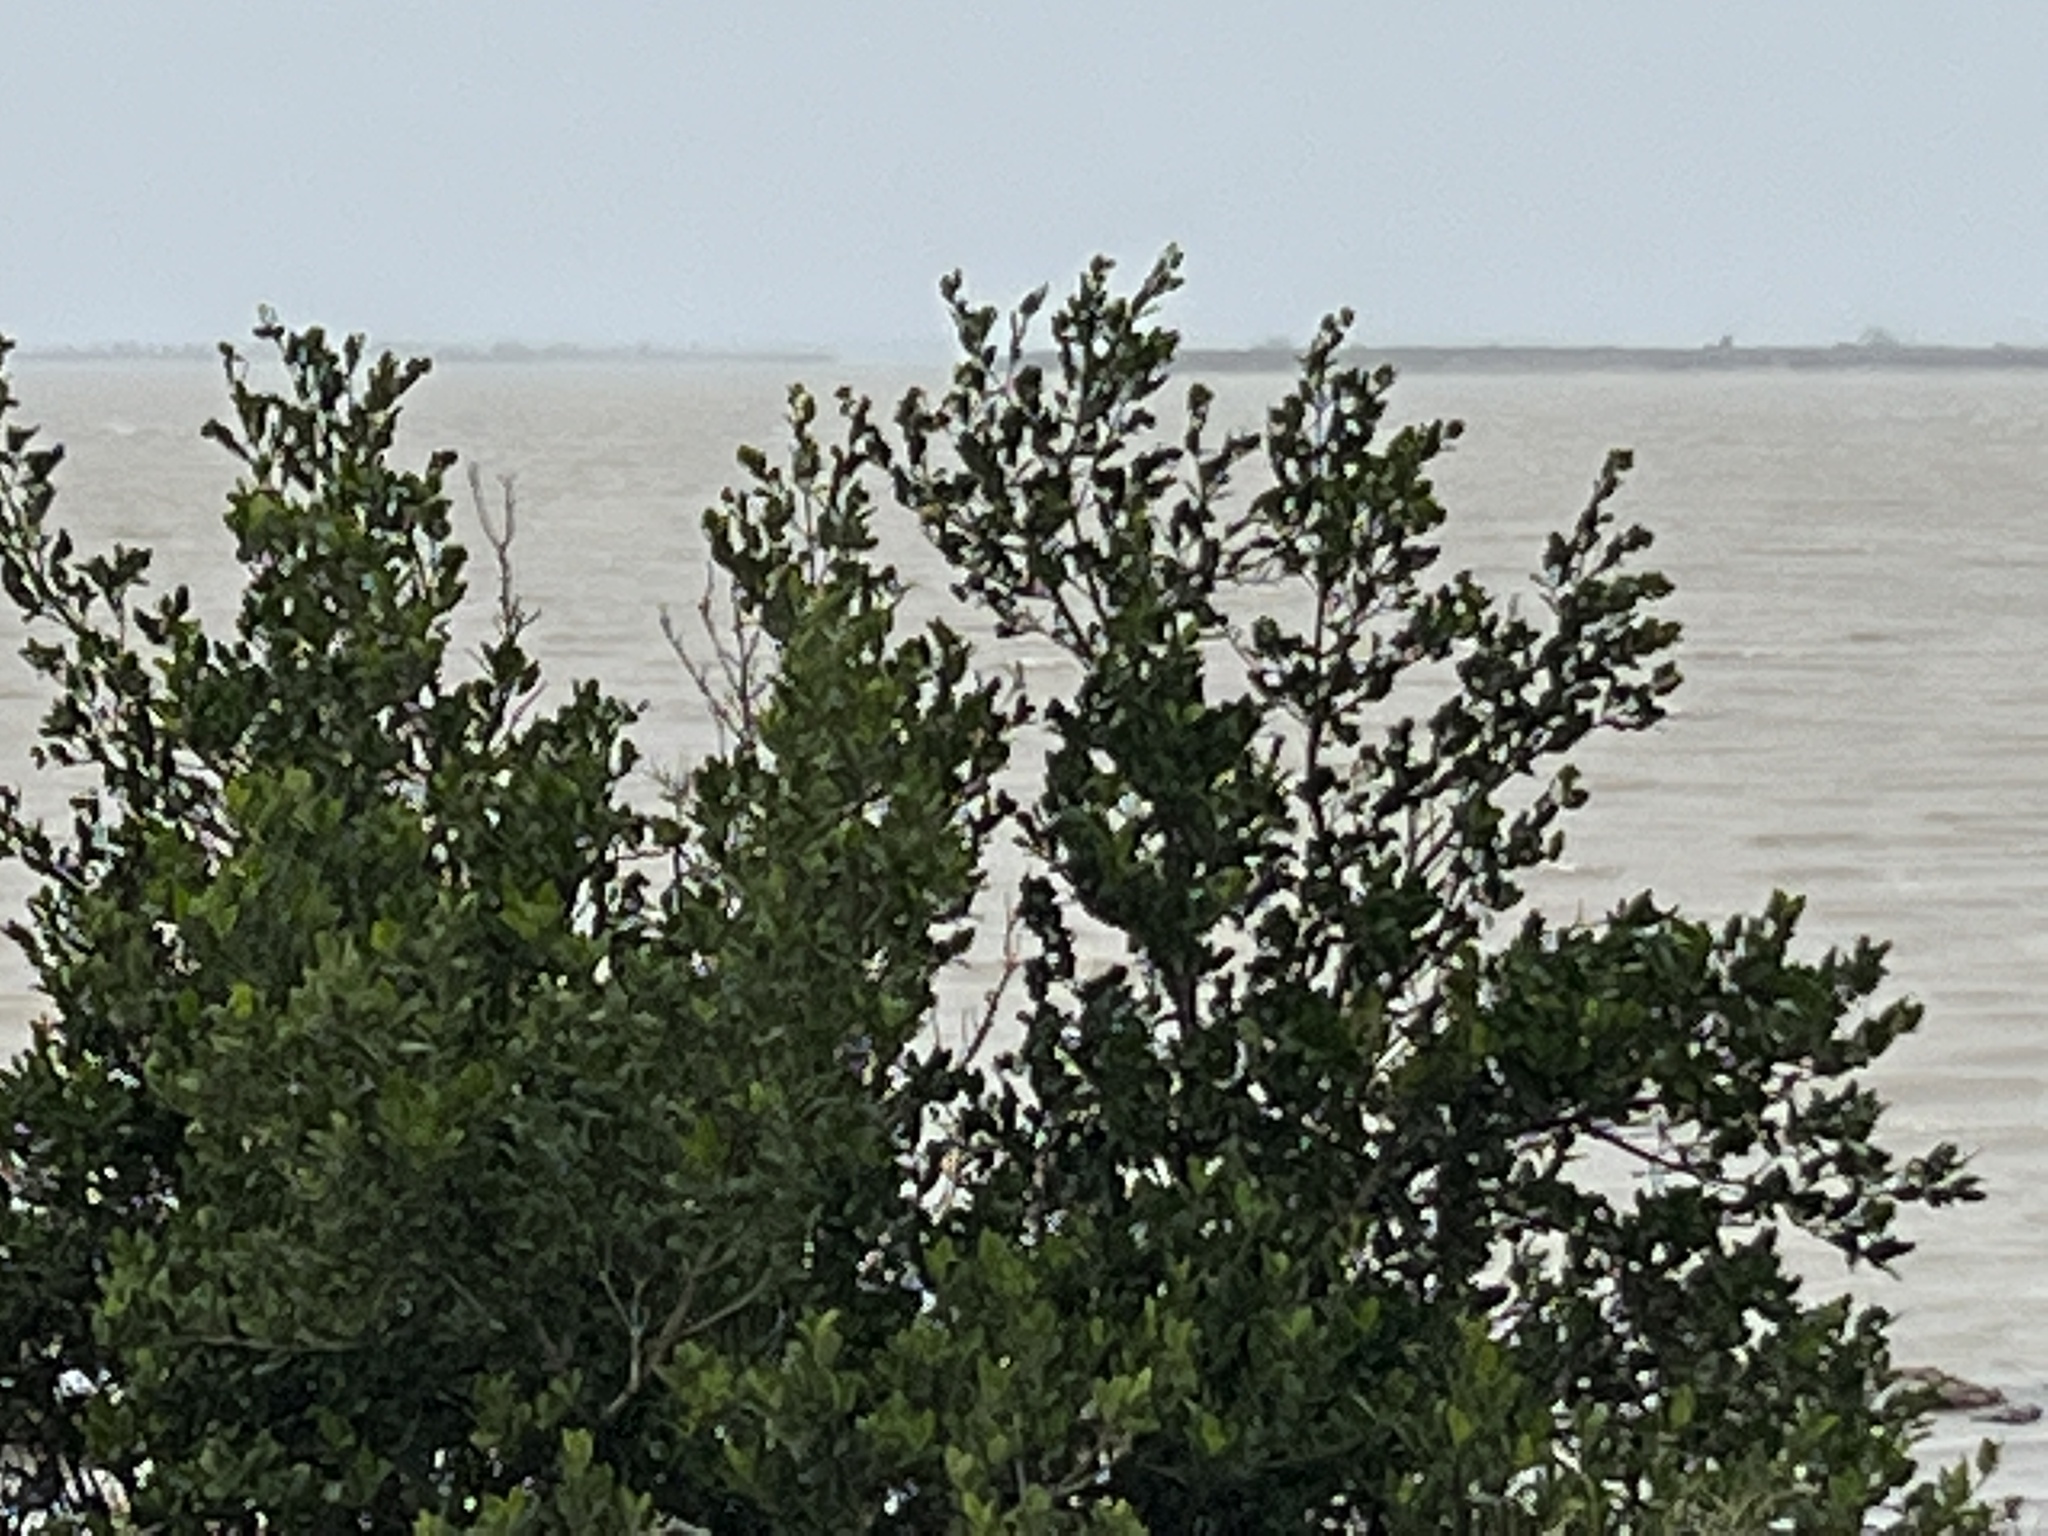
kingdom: Plantae
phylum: Tracheophyta
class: Magnoliopsida
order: Lamiales
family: Acanthaceae
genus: Avicennia
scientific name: Avicennia germinans
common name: Black mangrove
